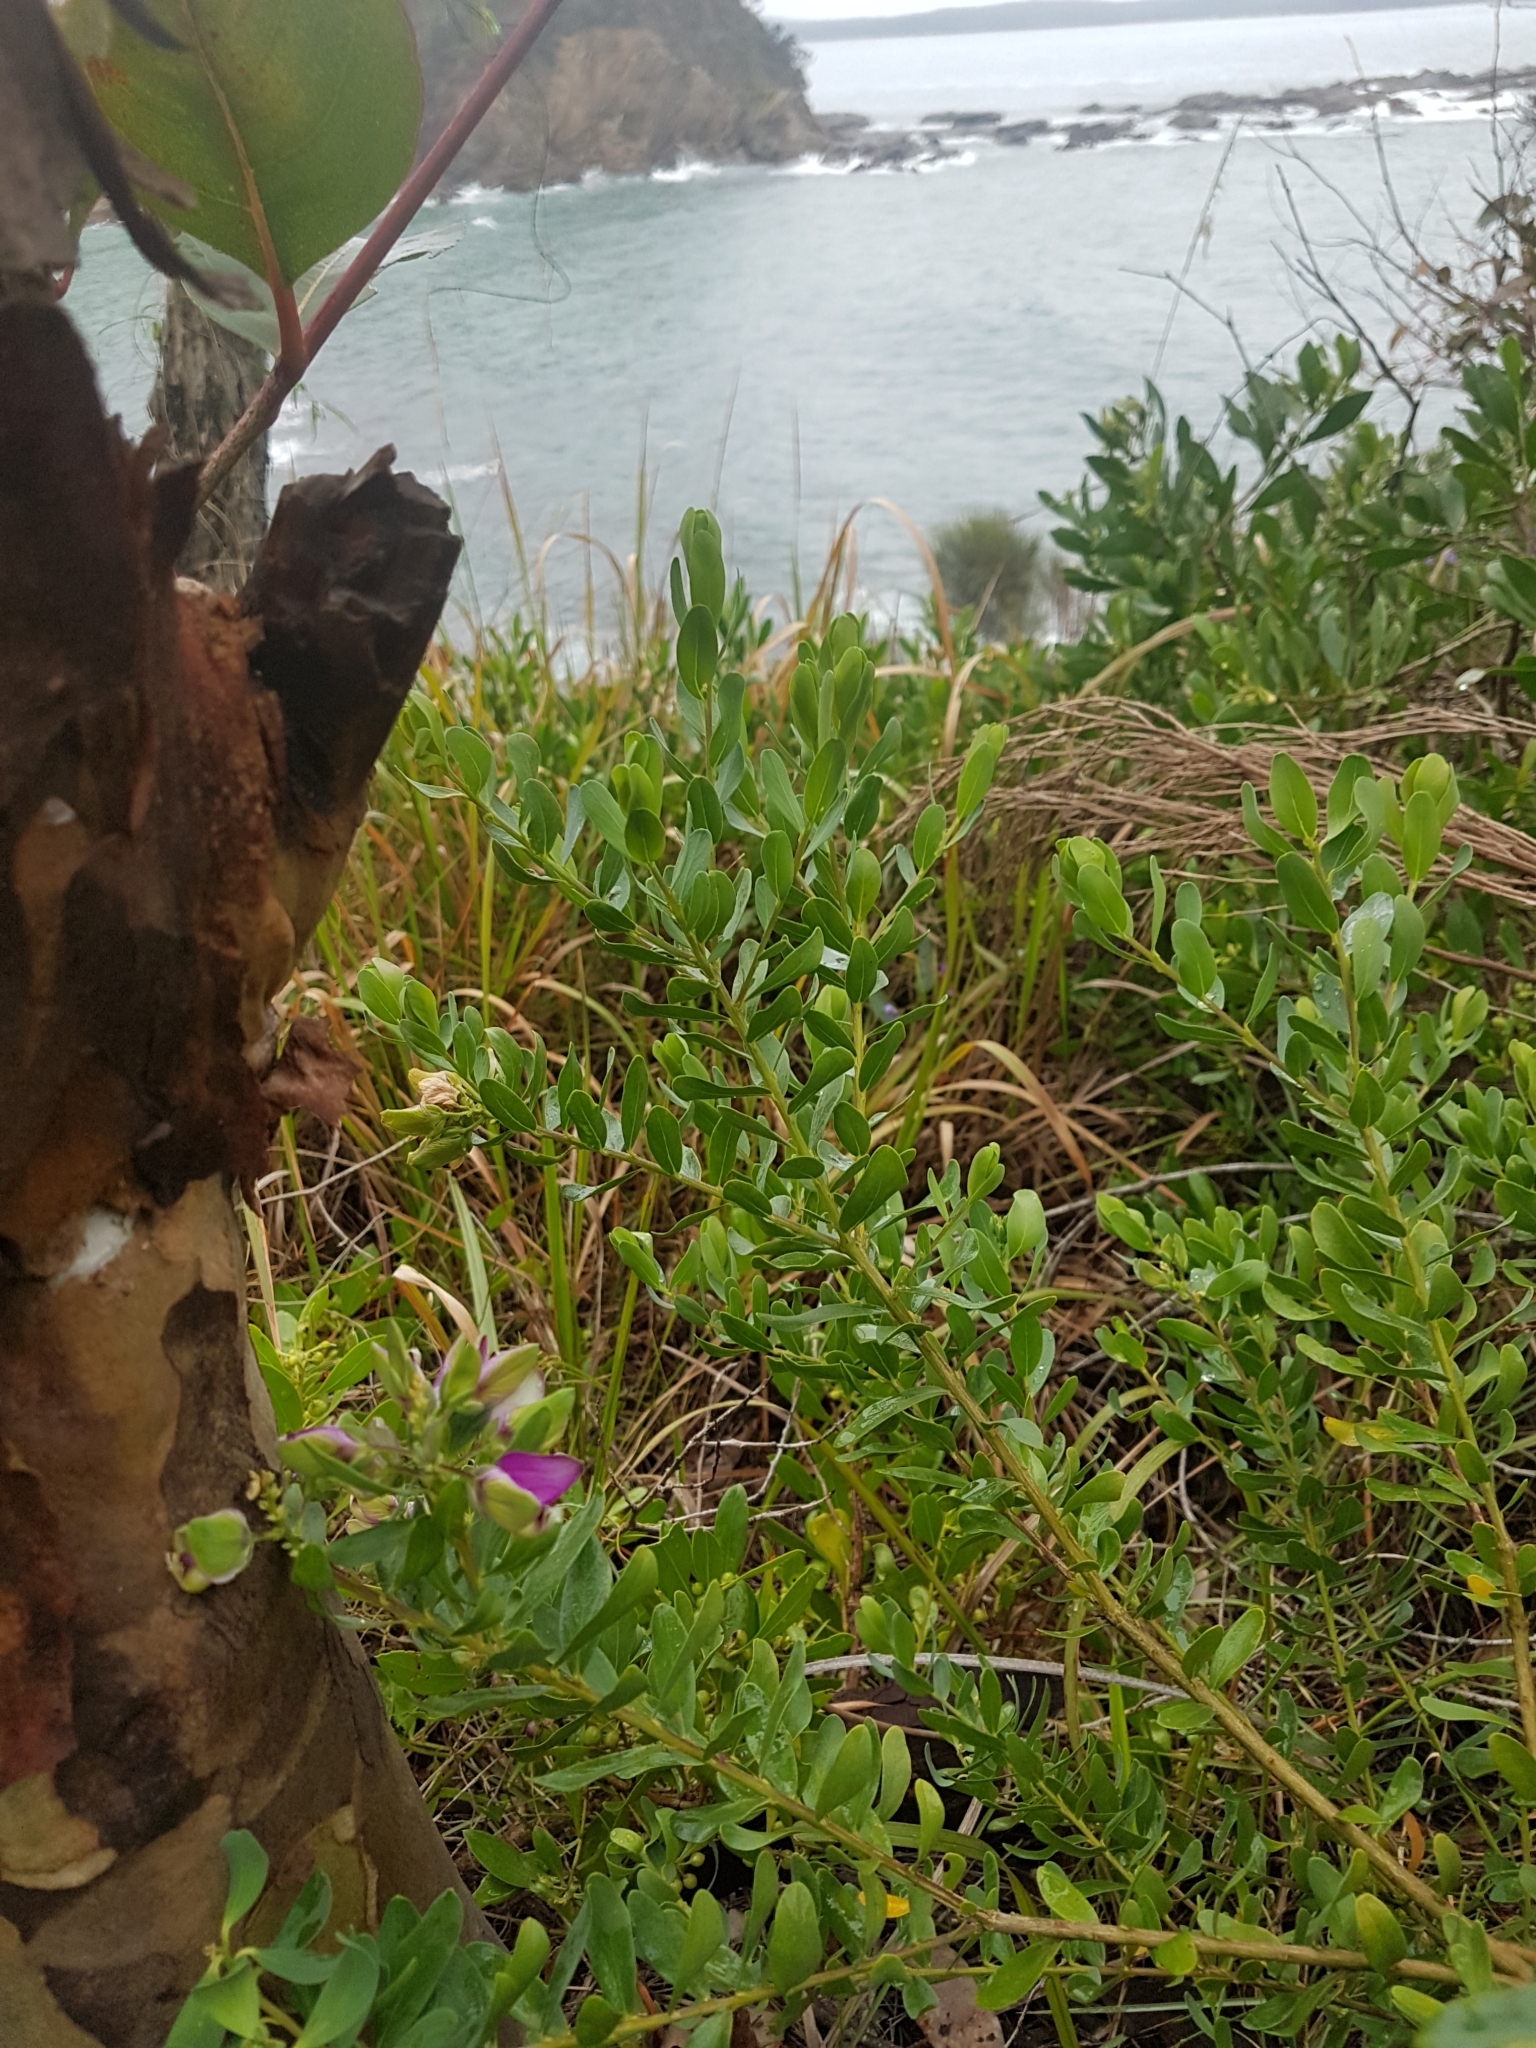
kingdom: Plantae
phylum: Tracheophyta
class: Magnoliopsida
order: Fabales
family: Polygalaceae
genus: Polygala
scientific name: Polygala myrtifolia
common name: Myrtle-leaf milkwort
